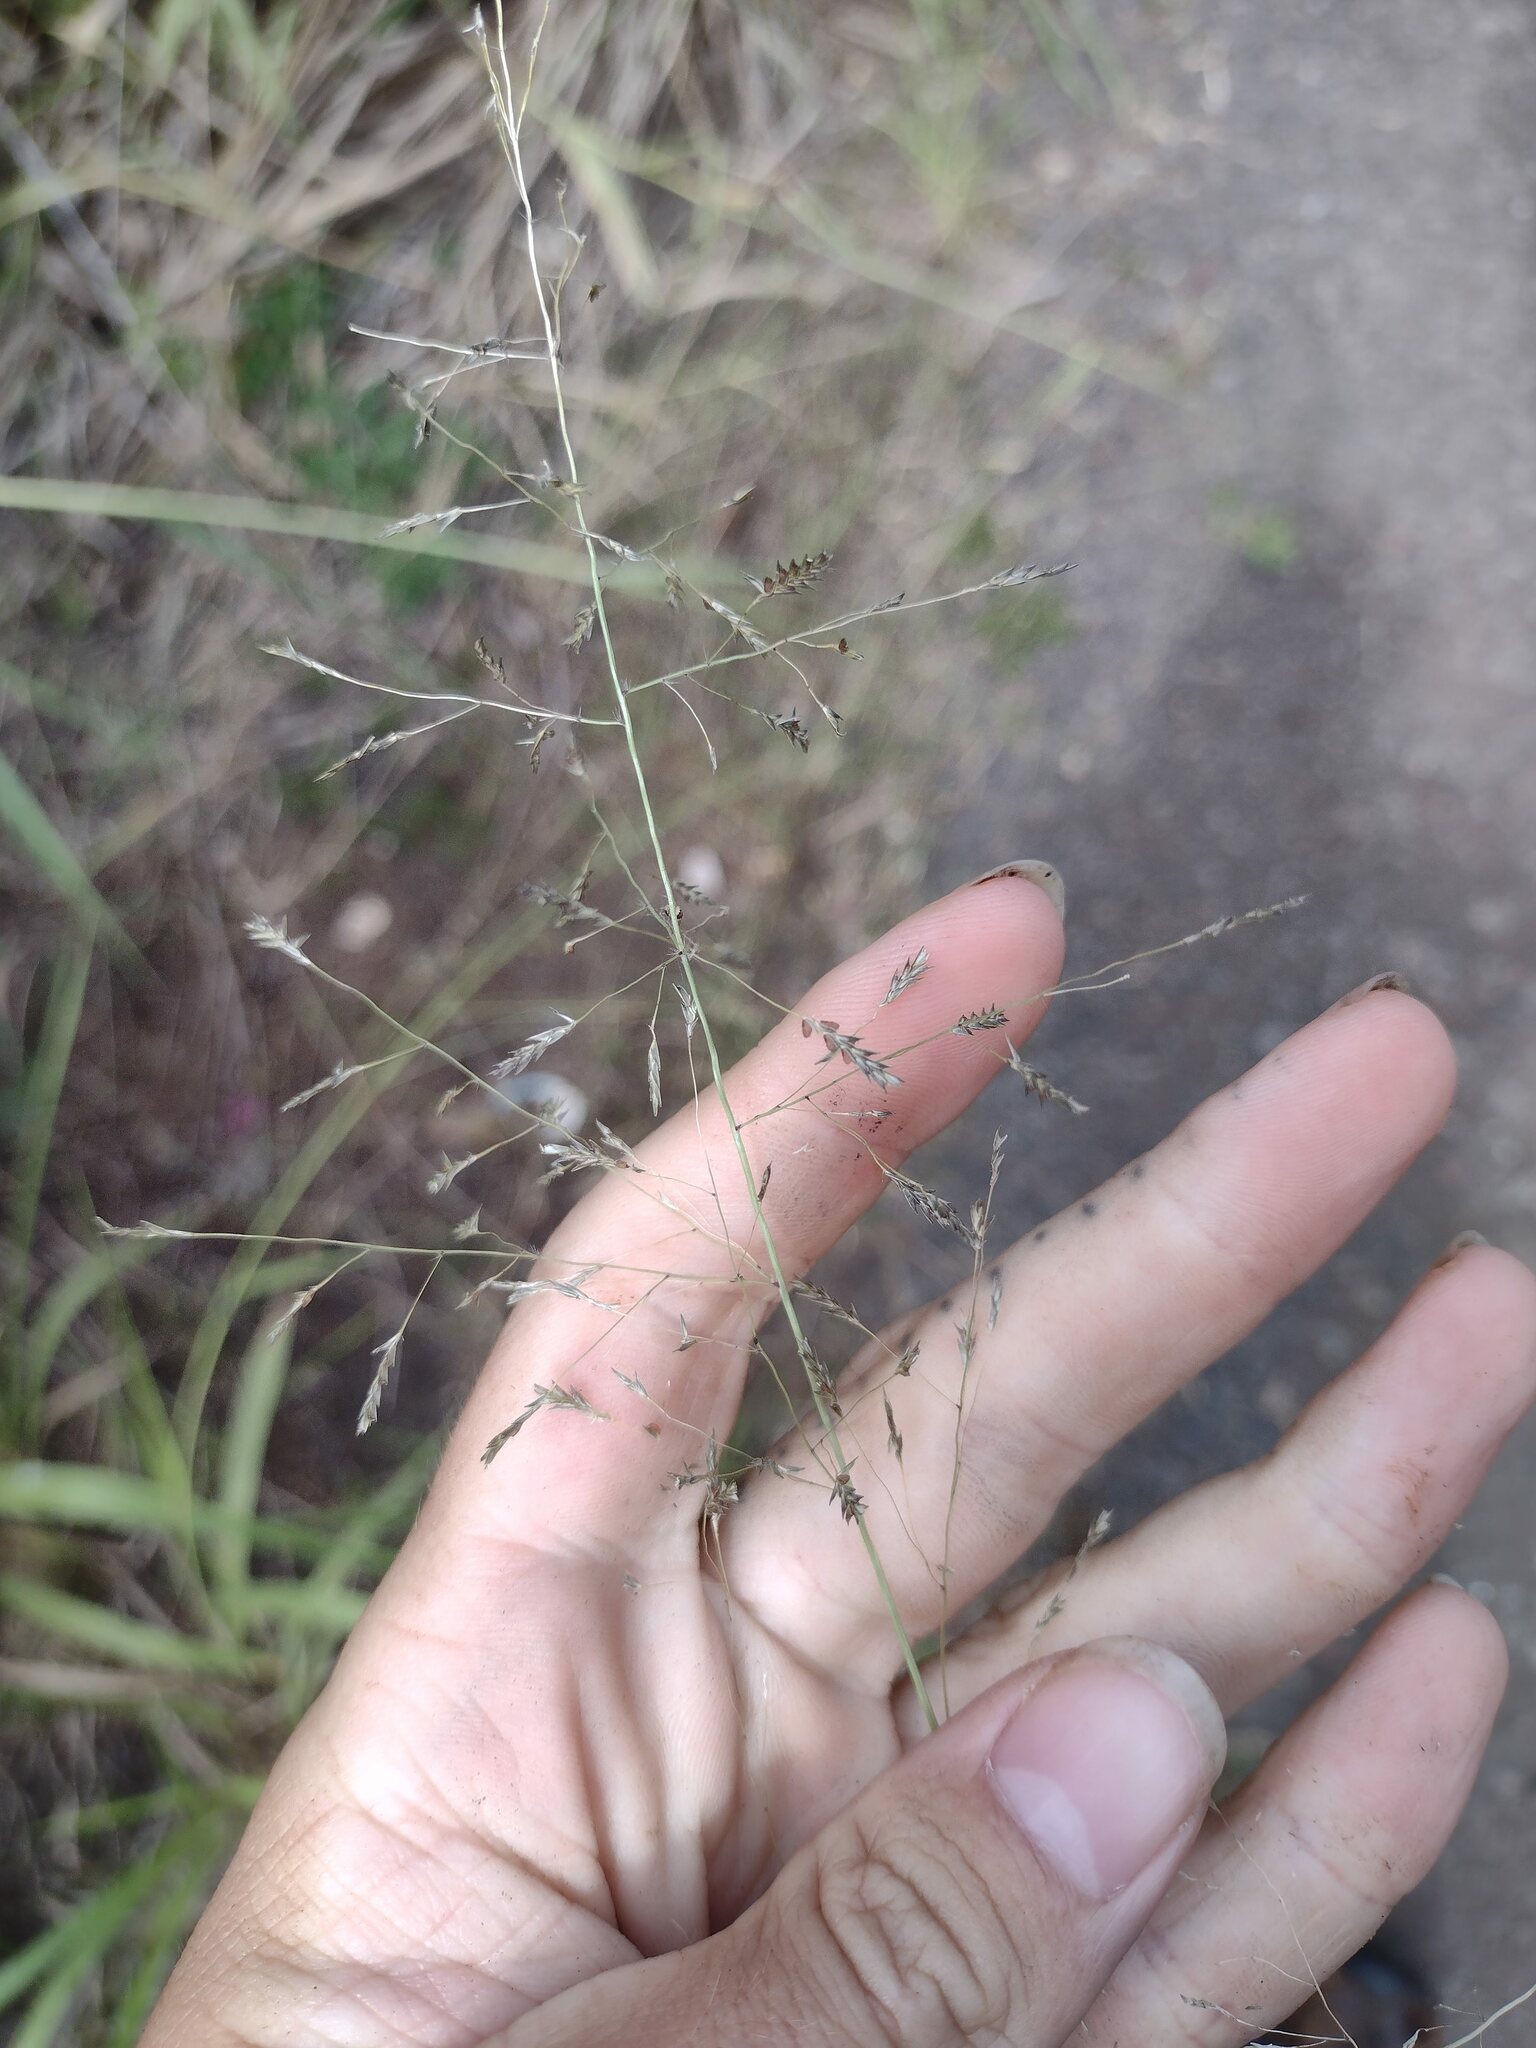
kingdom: Plantae
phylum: Tracheophyta
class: Liliopsida
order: Poales
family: Poaceae
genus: Eragrostis
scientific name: Eragrostis tenuifolia
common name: Elastic grass
